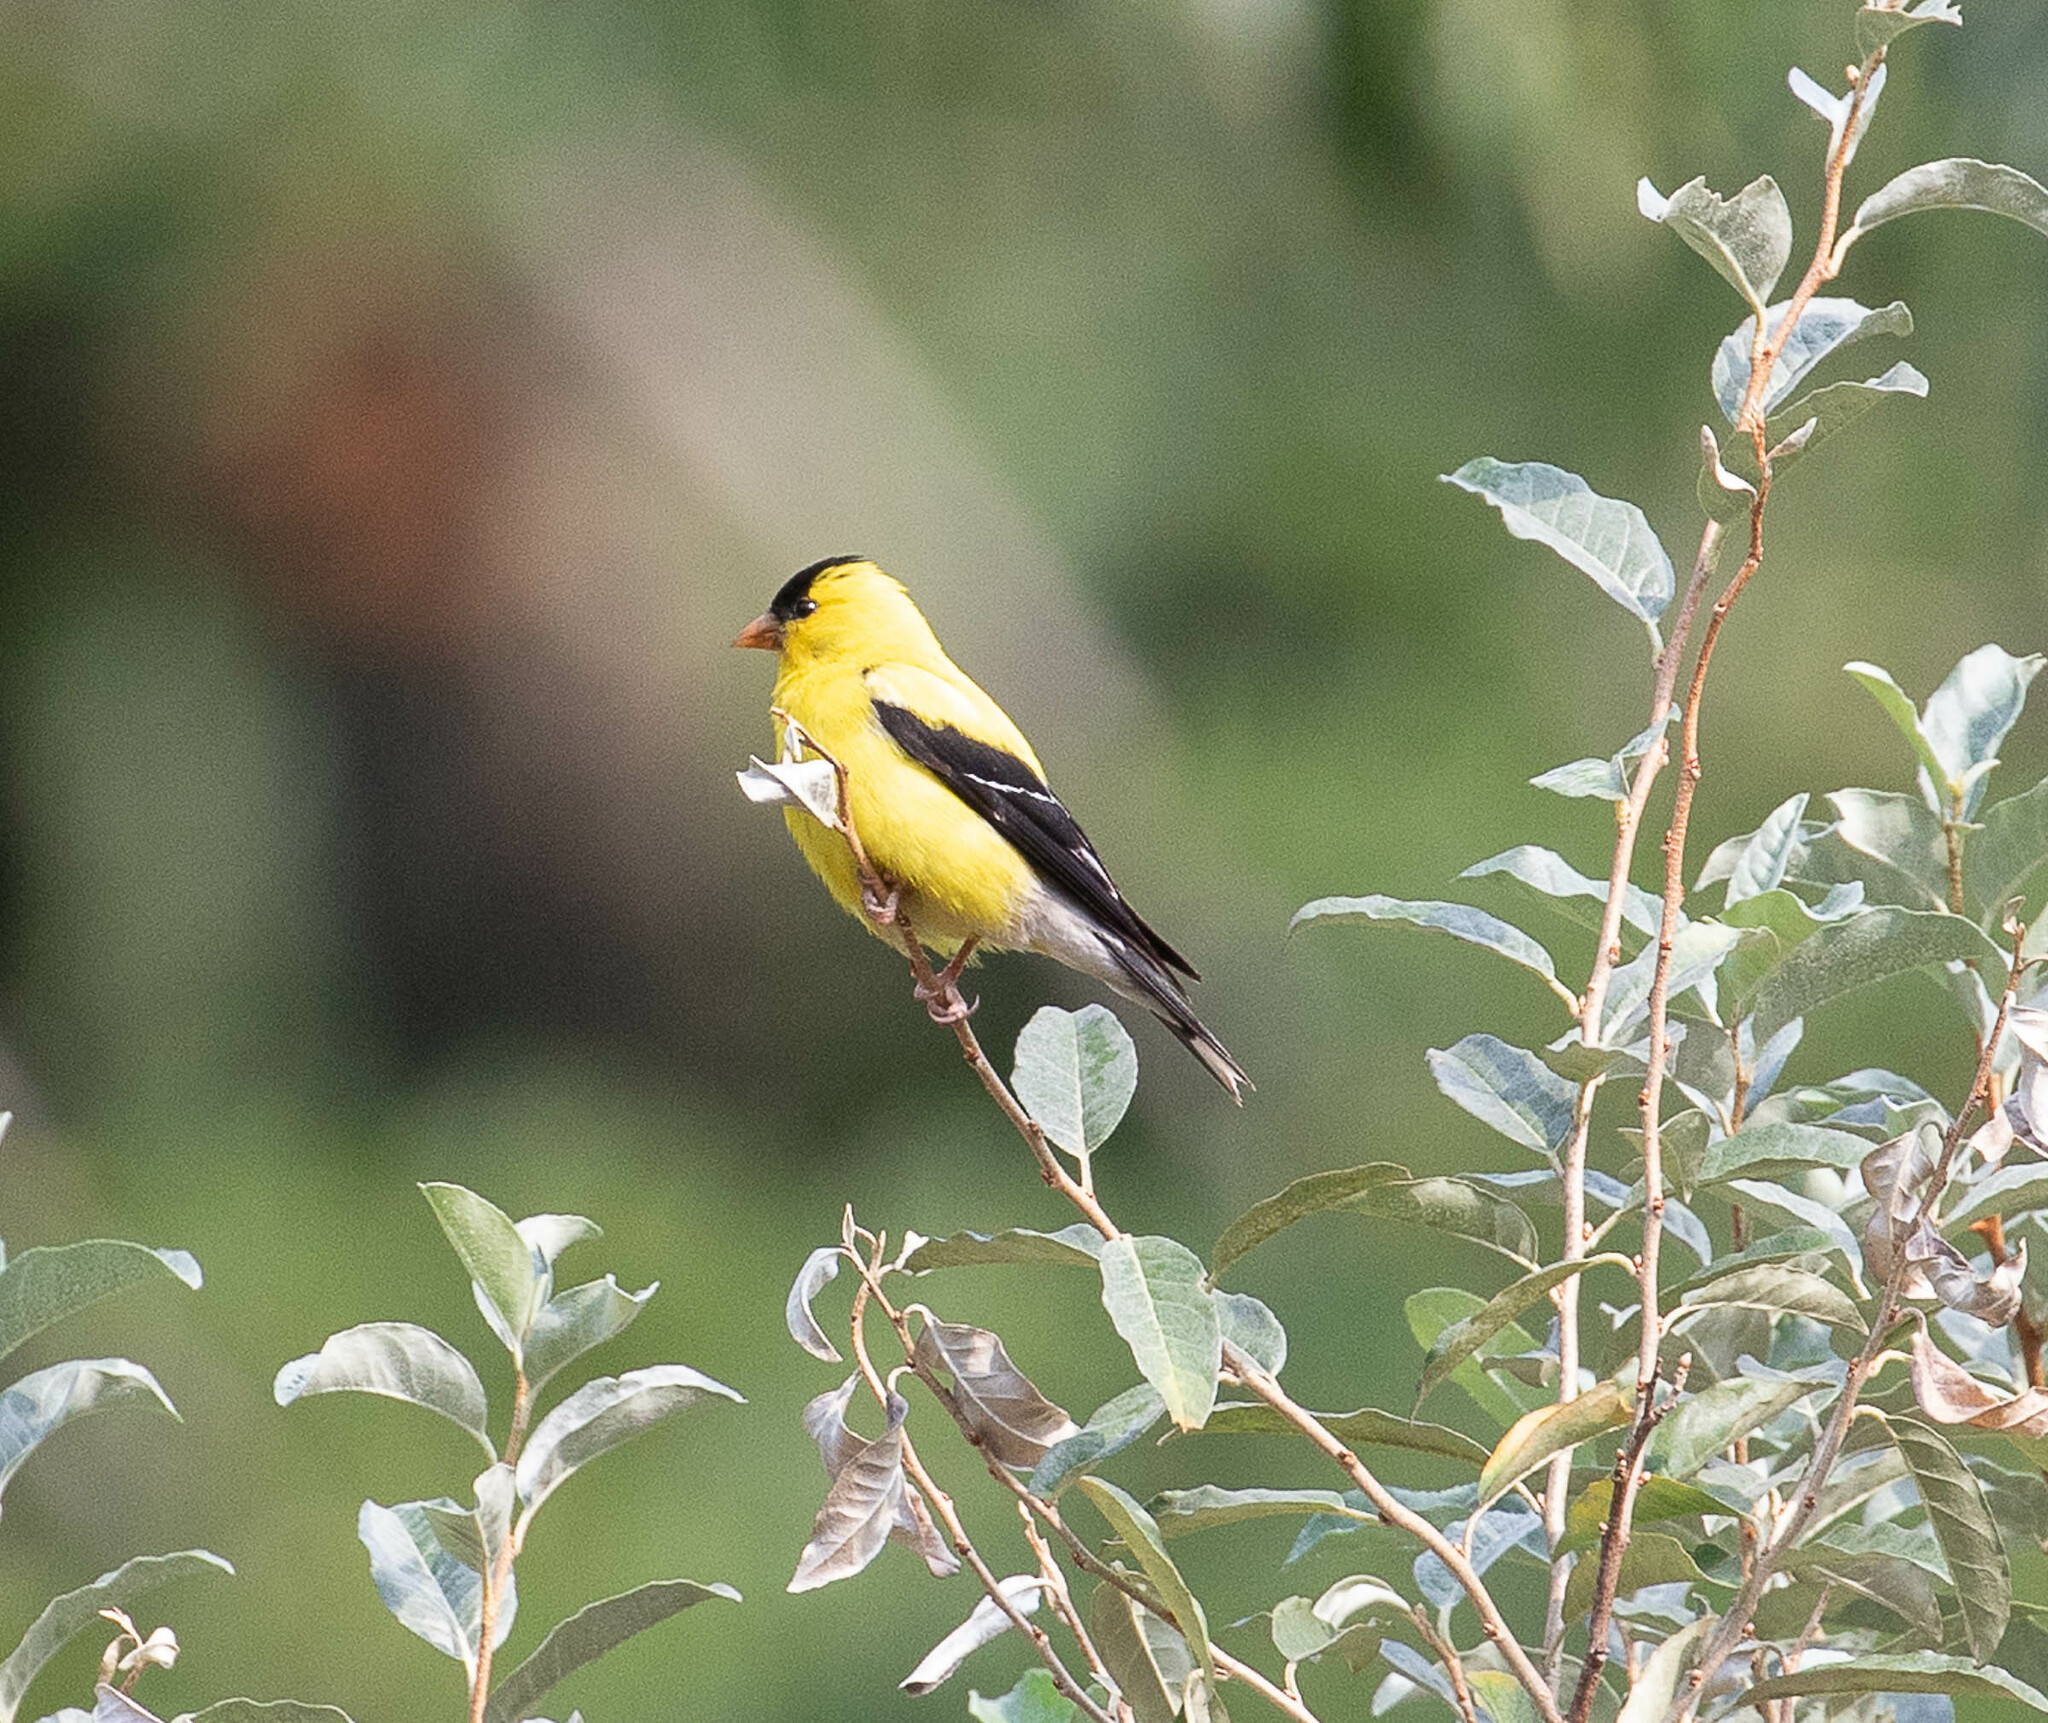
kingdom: Animalia
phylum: Chordata
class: Aves
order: Passeriformes
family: Fringillidae
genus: Spinus
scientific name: Spinus tristis
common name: American goldfinch
